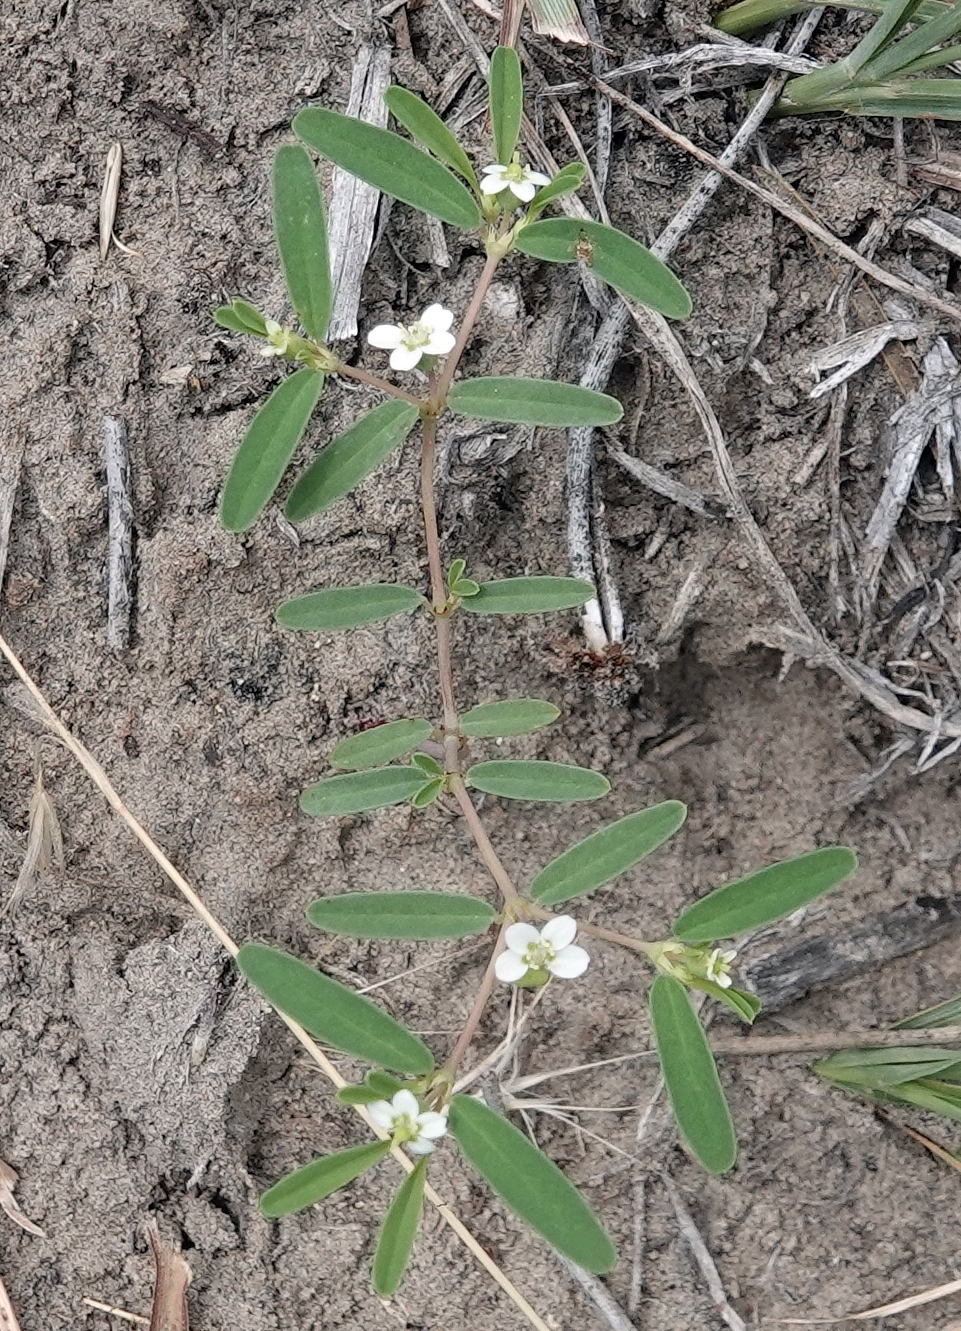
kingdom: Plantae
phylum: Tracheophyta
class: Magnoliopsida
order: Malpighiales
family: Euphorbiaceae
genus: Euphorbia
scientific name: Euphorbia missurica
